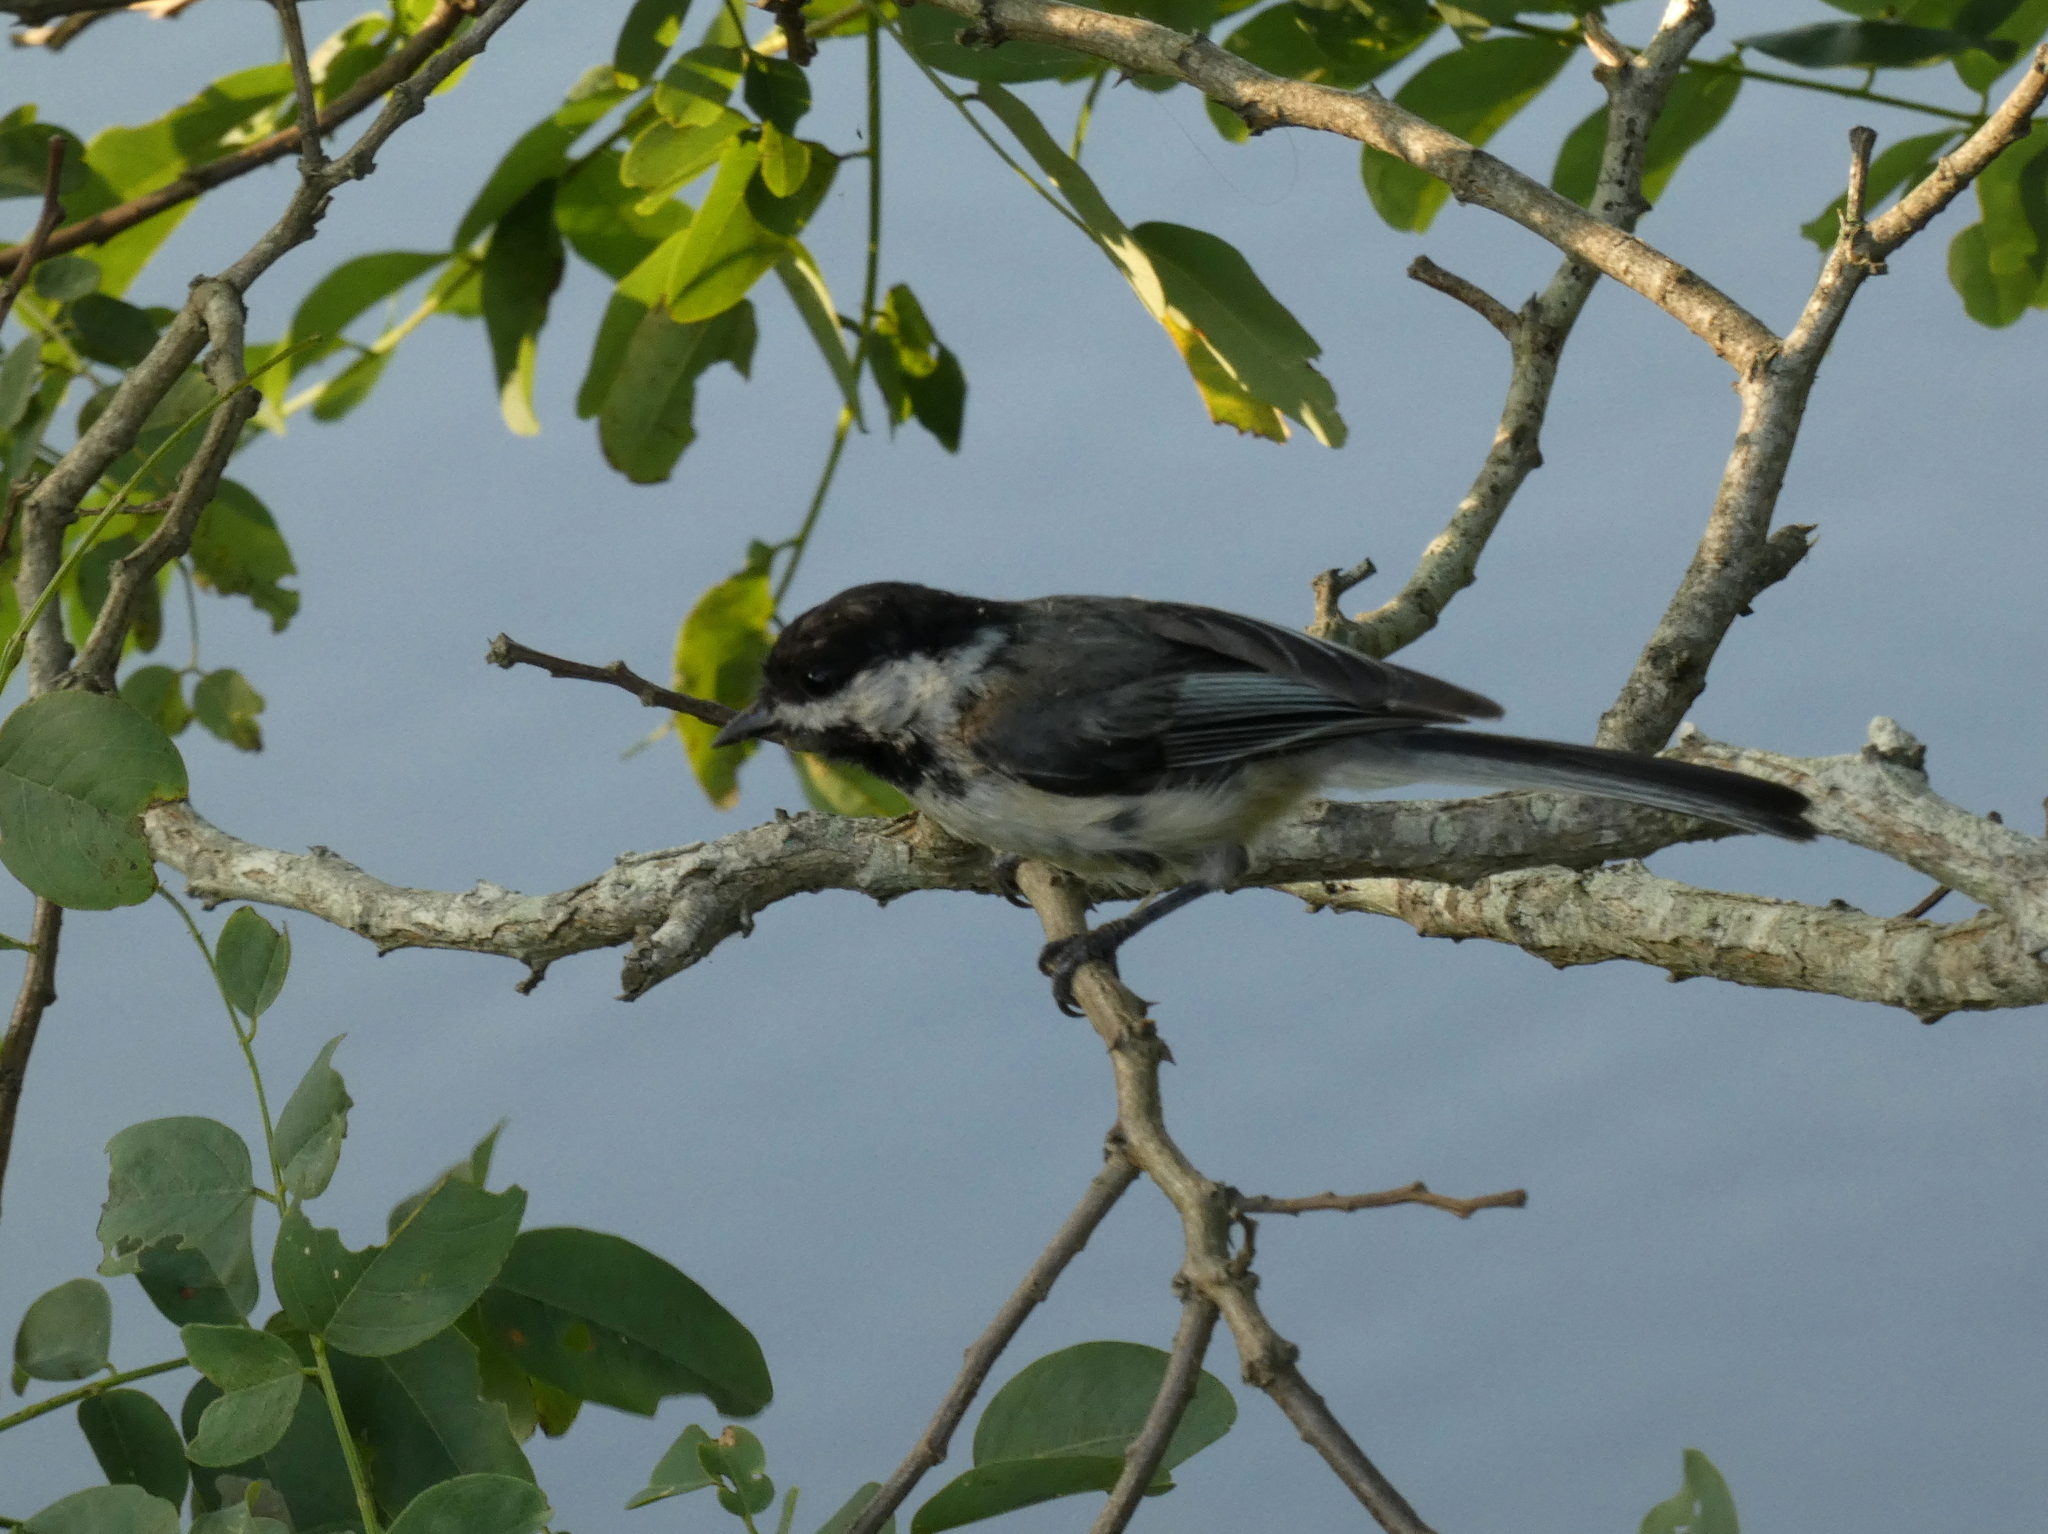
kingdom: Animalia
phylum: Chordata
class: Aves
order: Passeriformes
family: Paridae
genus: Poecile
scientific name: Poecile atricapillus
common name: Black-capped chickadee
